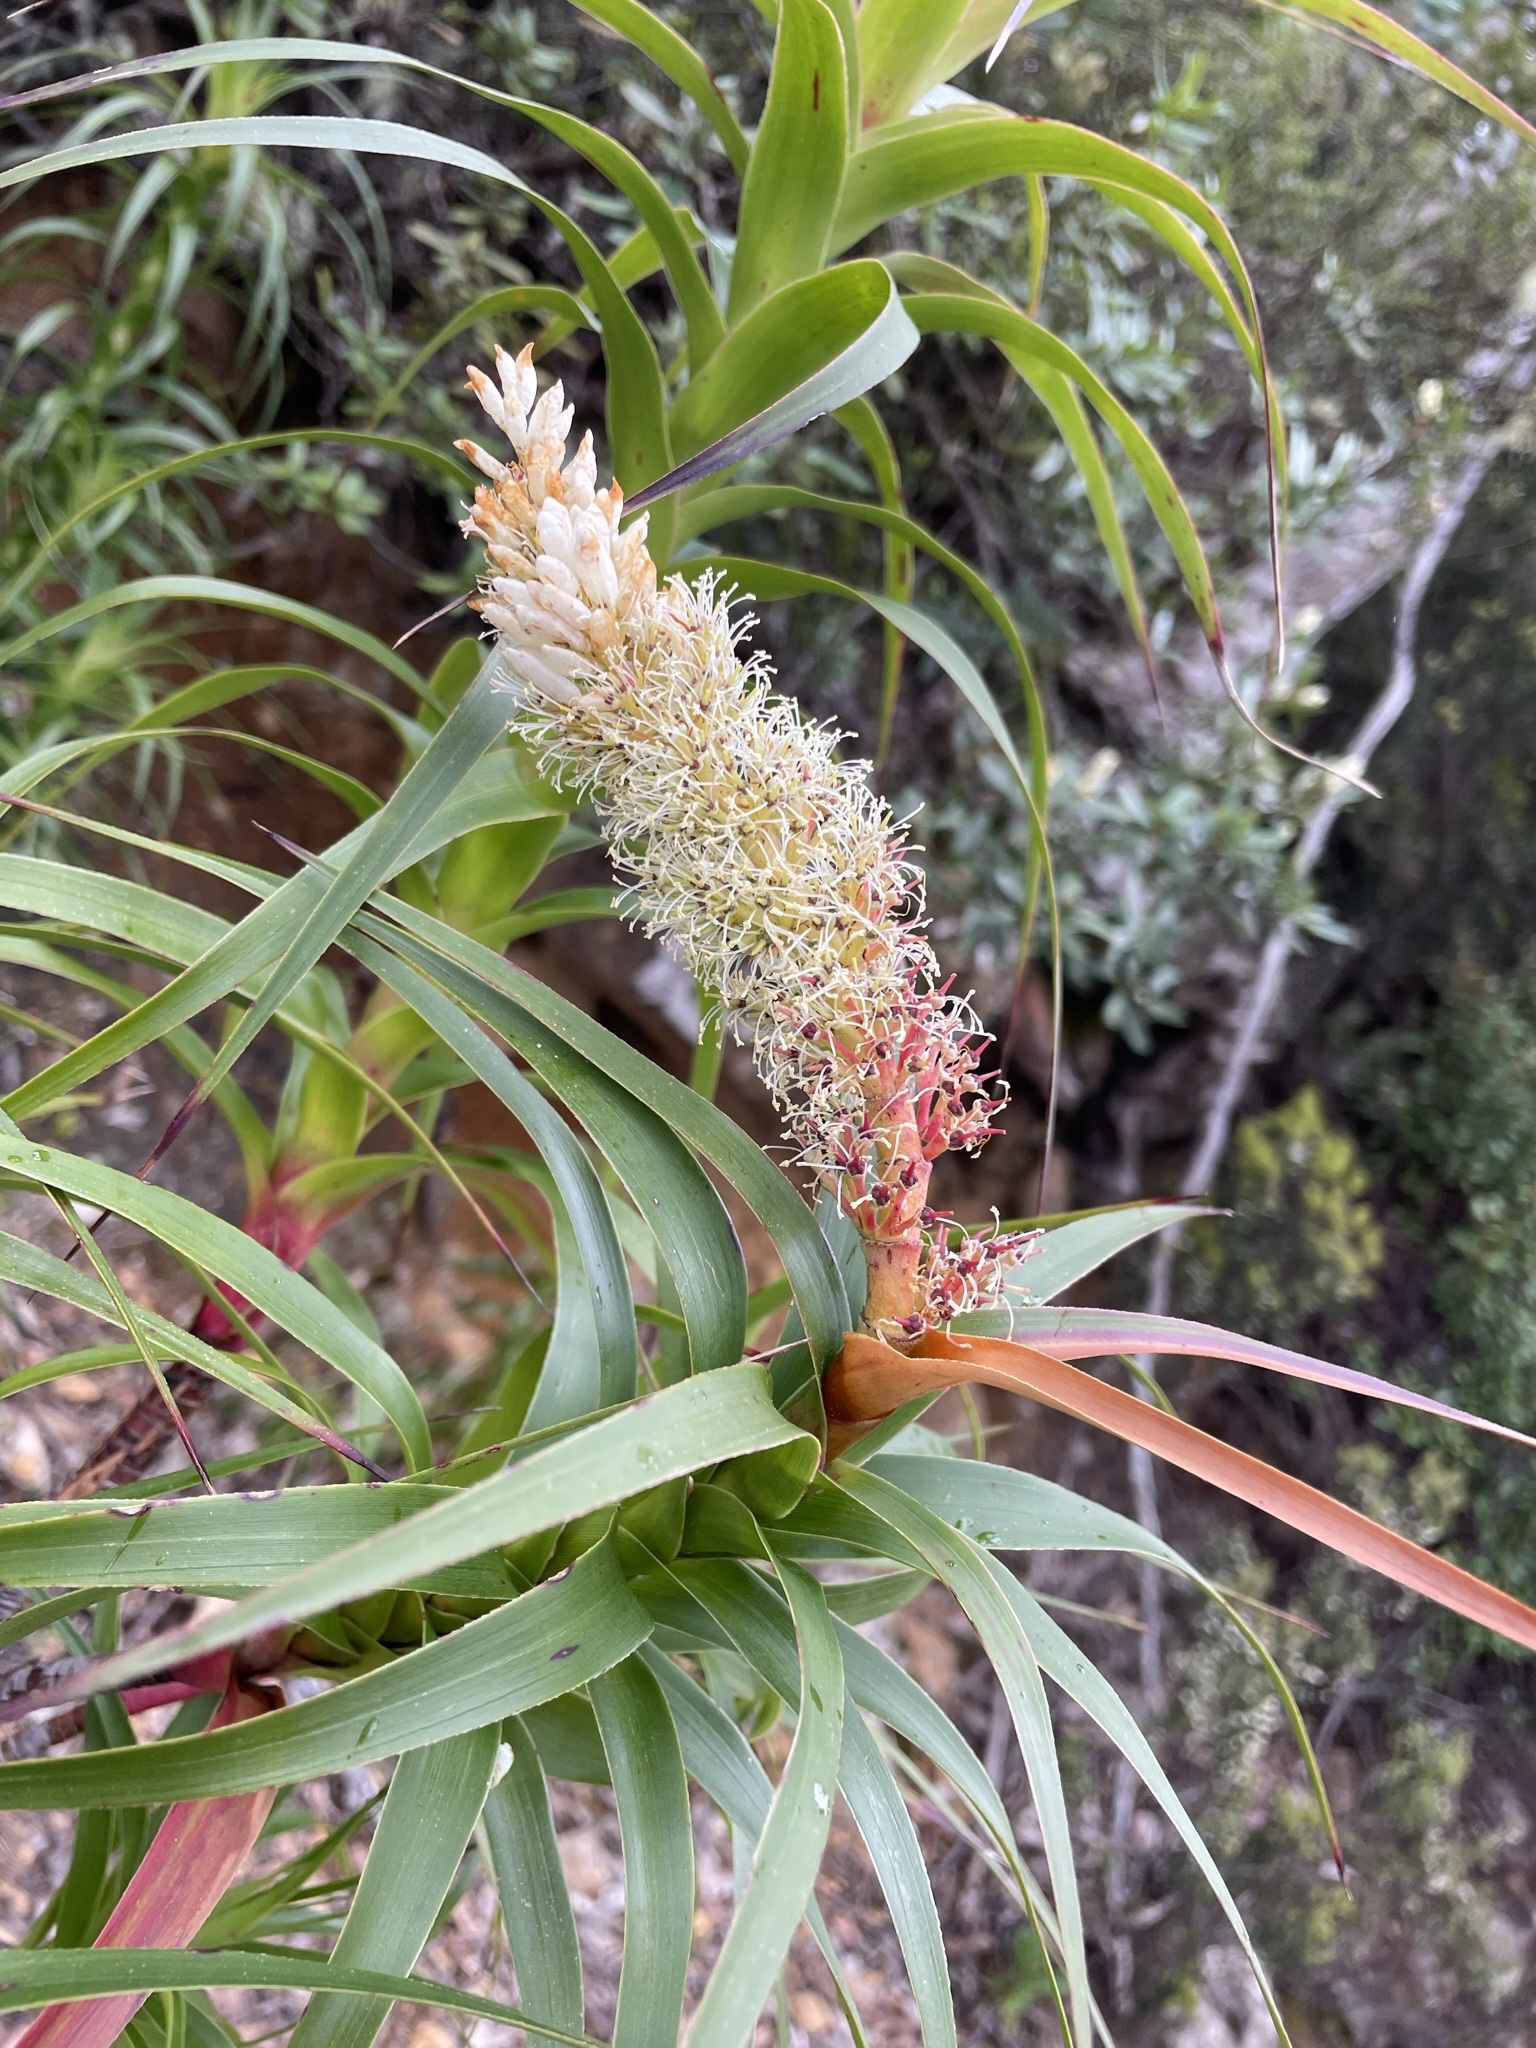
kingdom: Plantae
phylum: Tracheophyta
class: Magnoliopsida
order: Ericales
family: Ericaceae
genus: Dracophyllum
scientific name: Dracophyllum desgrazii
